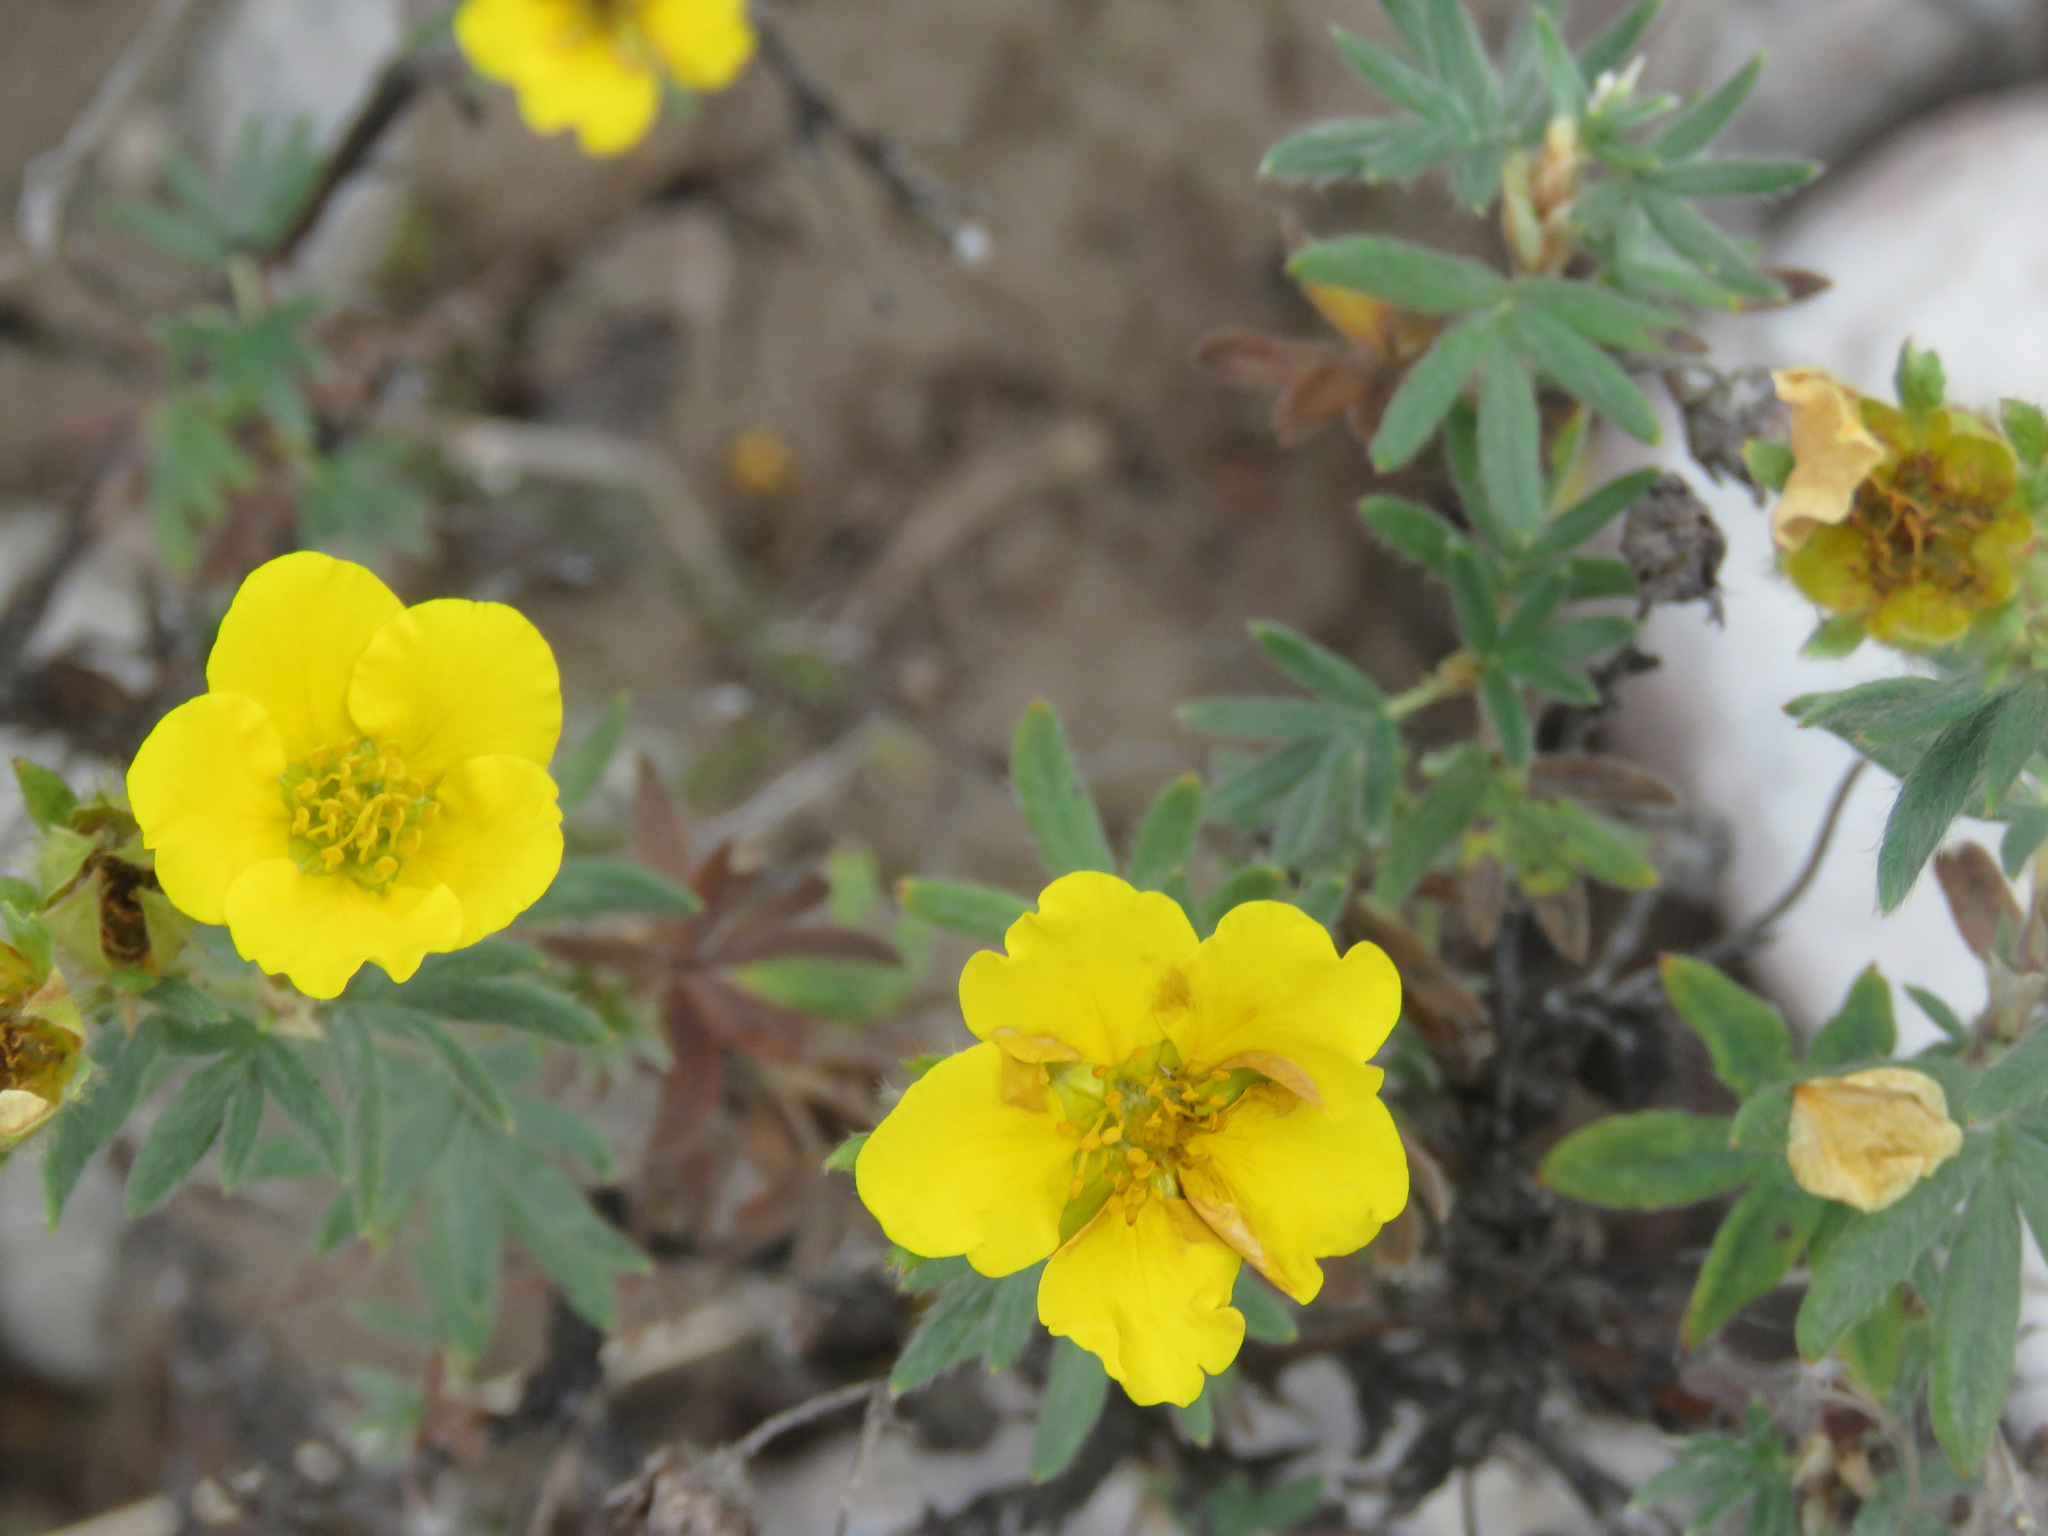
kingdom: Plantae
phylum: Tracheophyta
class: Magnoliopsida
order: Rosales
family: Rosaceae
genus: Dasiphora
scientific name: Dasiphora fruticosa
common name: Shrubby cinquefoil
